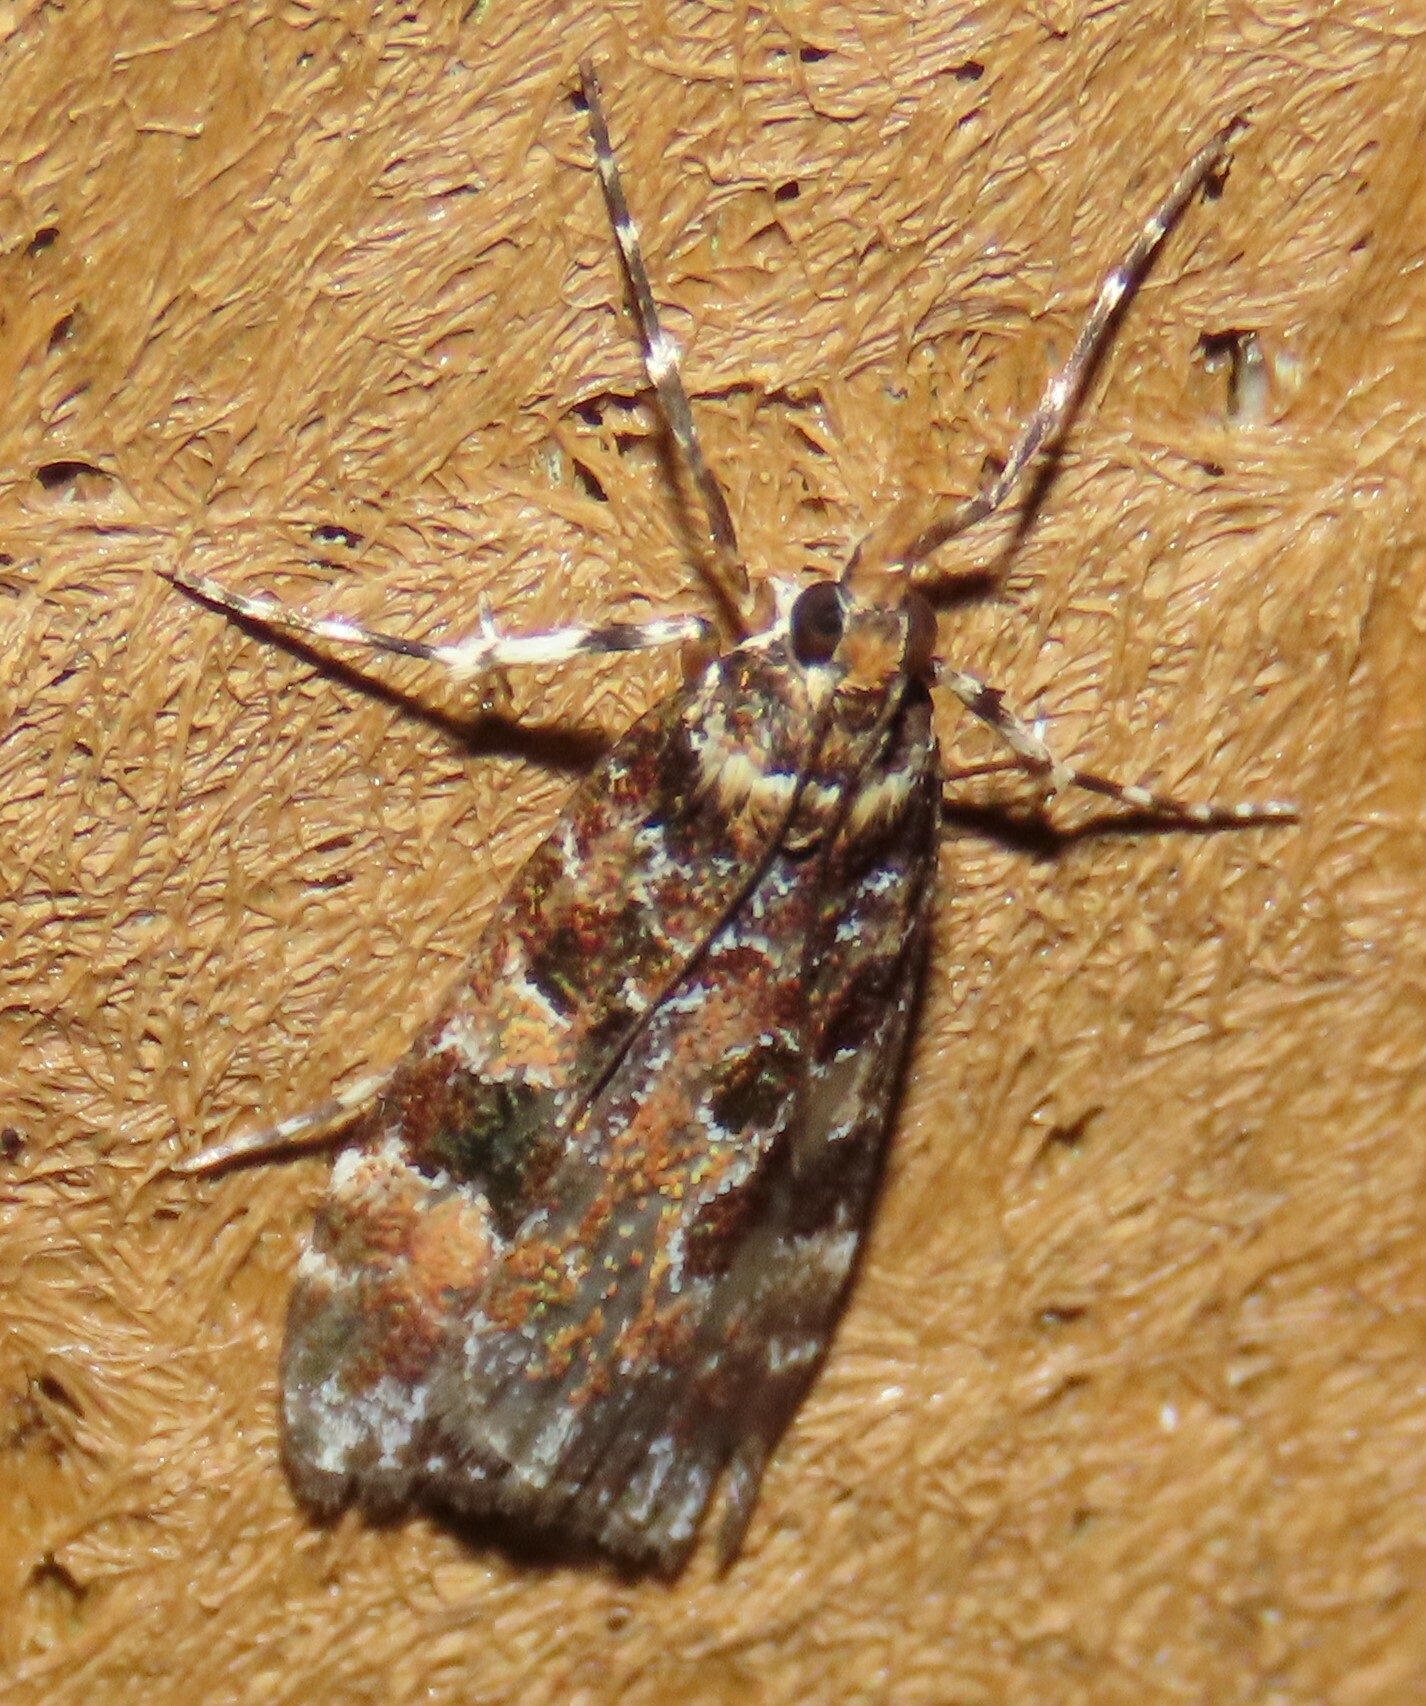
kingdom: Animalia
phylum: Arthropoda
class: Insecta
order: Lepidoptera
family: Crambidae
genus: Scoparia
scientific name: Scoparia ustimacula
